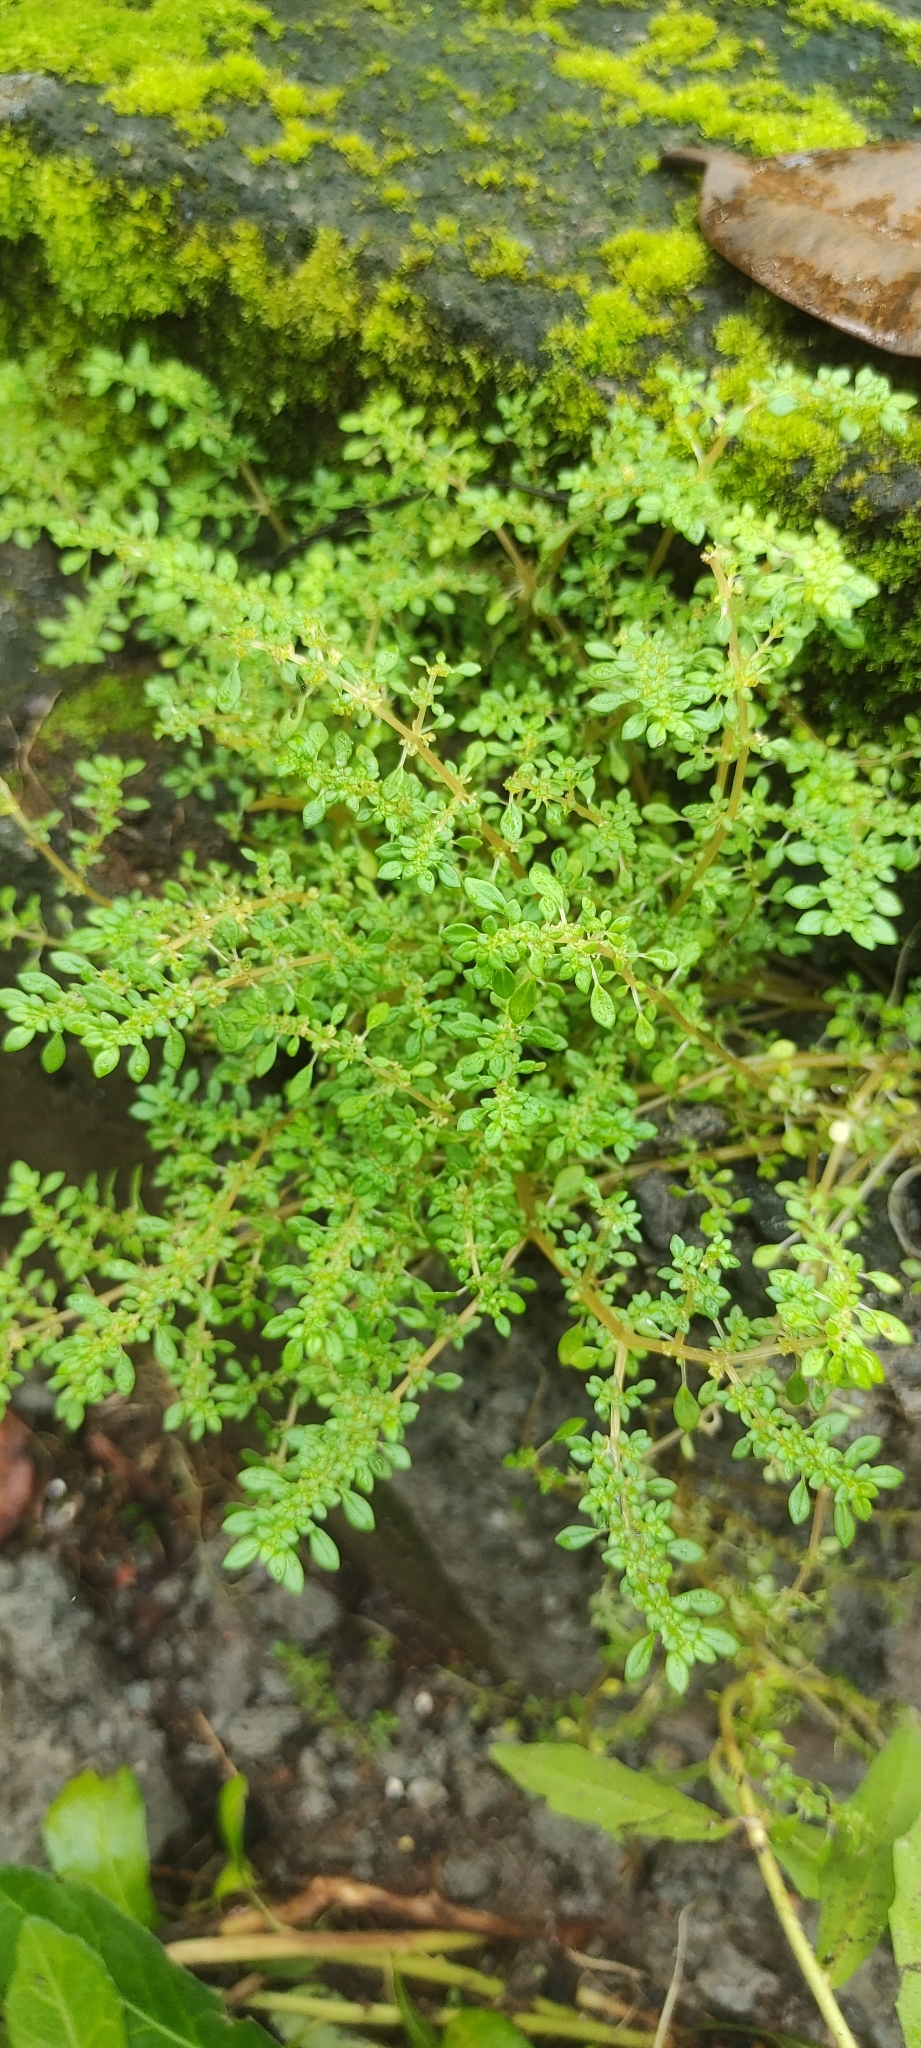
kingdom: Plantae
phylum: Tracheophyta
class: Magnoliopsida
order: Rosales
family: Urticaceae
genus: Pilea
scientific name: Pilea microphylla
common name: Artillery-plant
